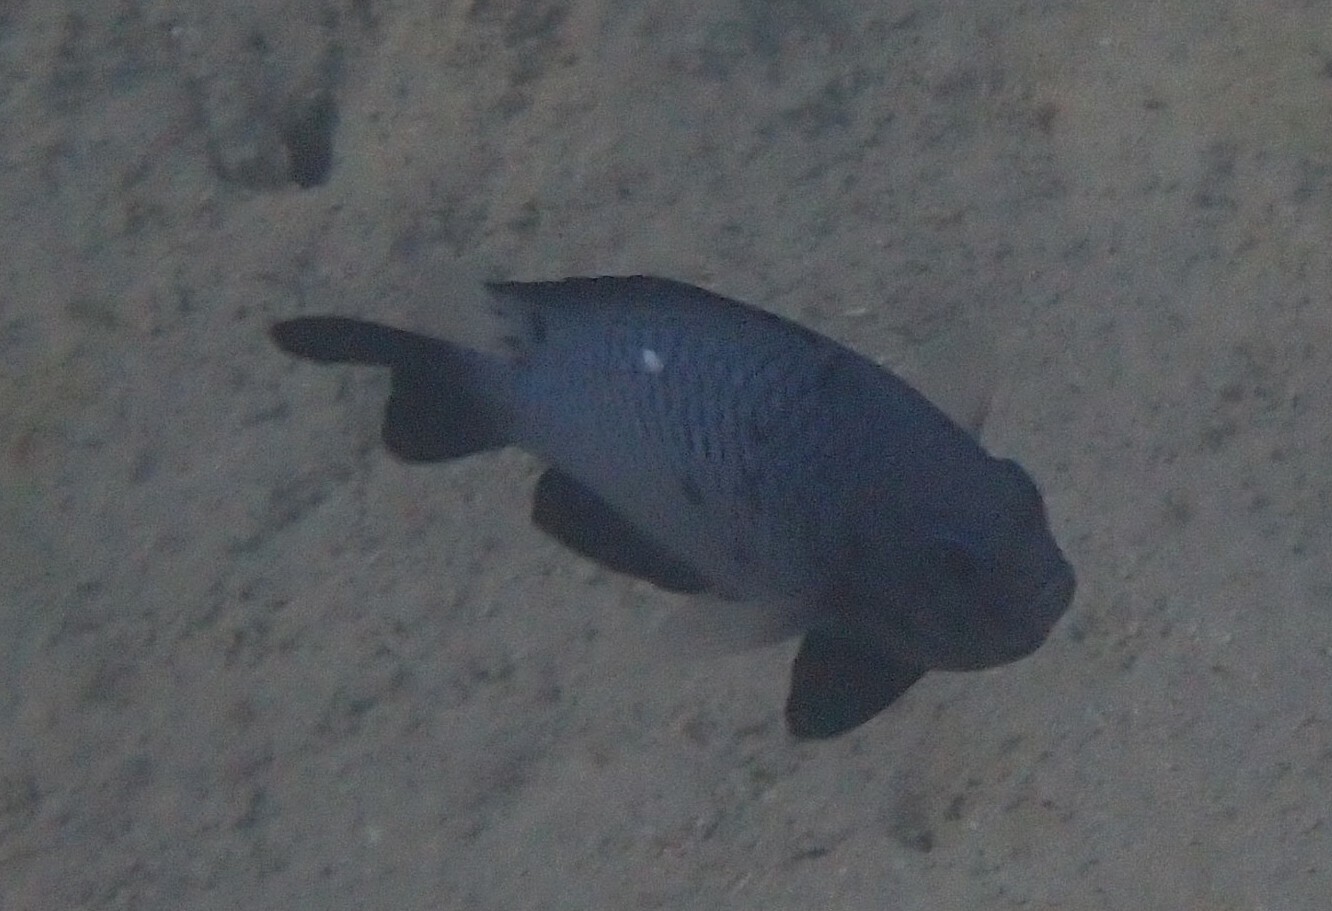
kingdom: Animalia
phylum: Chordata
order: Perciformes
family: Pomacentridae
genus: Dascyllus
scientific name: Dascyllus trimaculatus
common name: Threespot dascyllus
